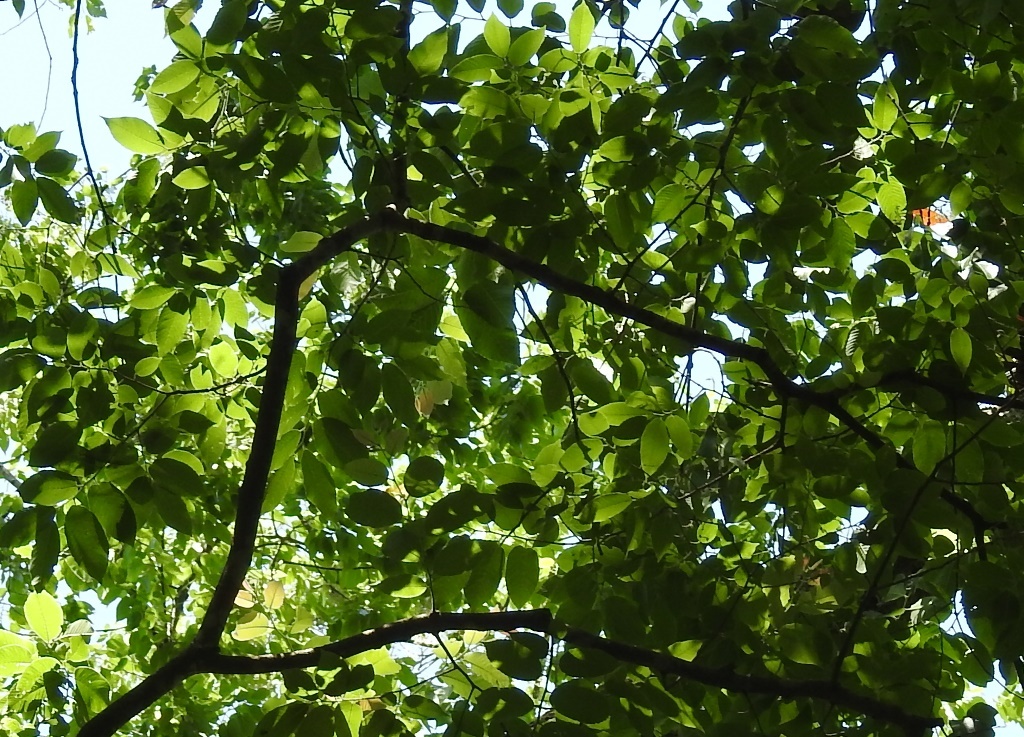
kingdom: Plantae
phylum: Tracheophyta
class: Magnoliopsida
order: Rosales
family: Ulmaceae
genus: Ulmus
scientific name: Ulmus mexicana
